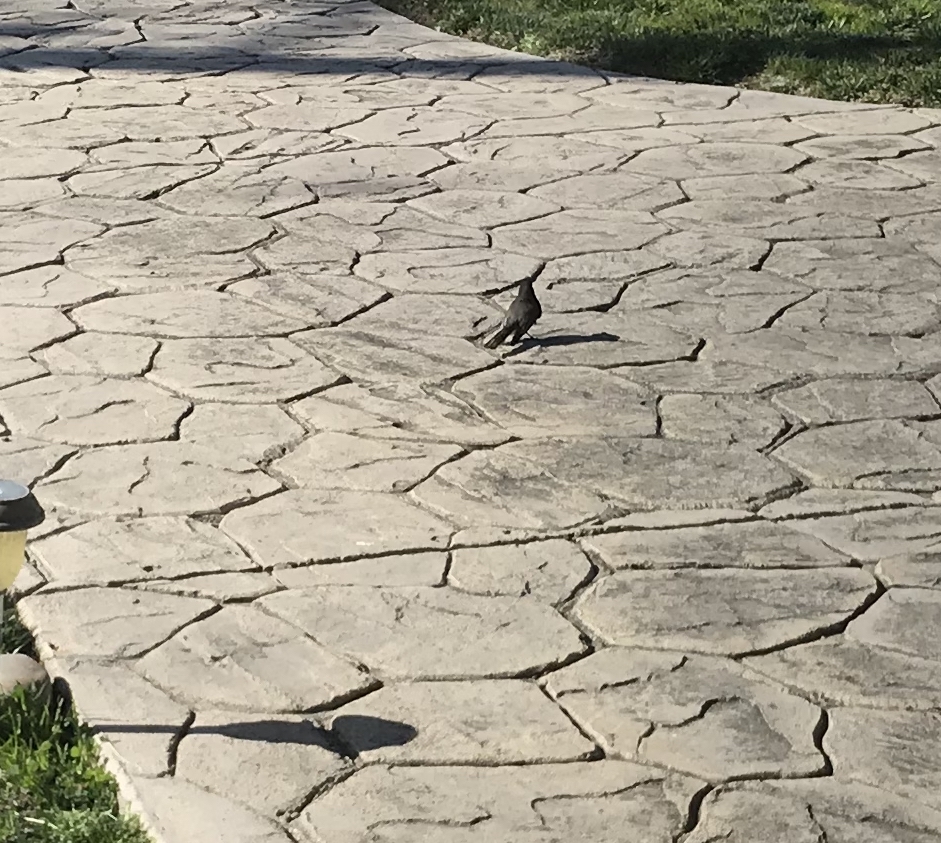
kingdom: Animalia
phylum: Chordata
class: Aves
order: Passeriformes
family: Tyrannidae
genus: Sayornis
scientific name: Sayornis nigricans
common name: Black phoebe
